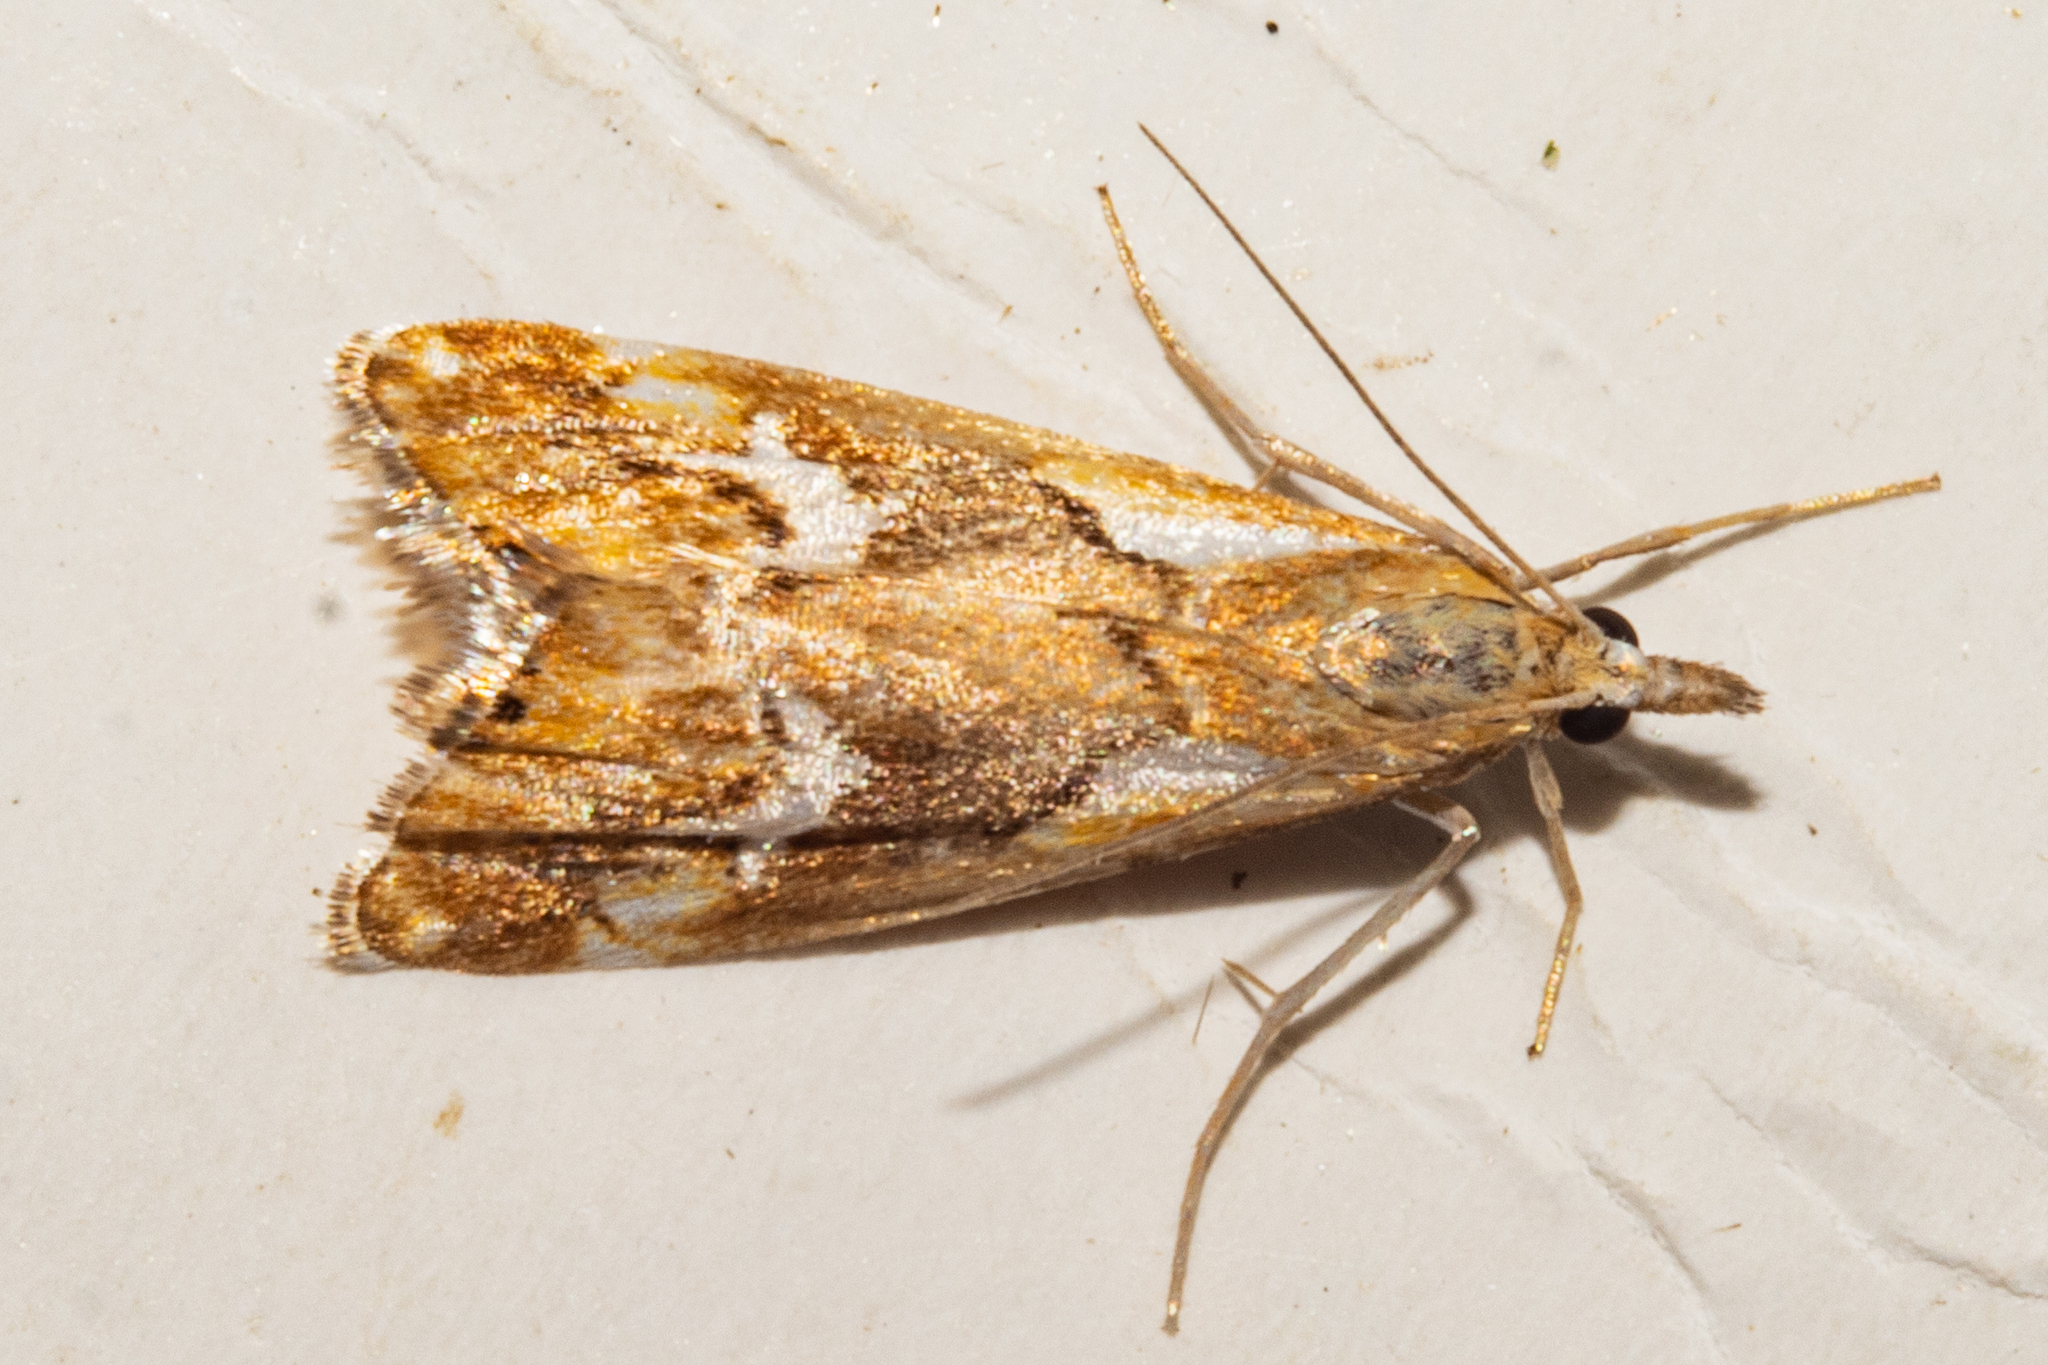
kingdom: Animalia
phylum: Arthropoda
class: Insecta
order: Lepidoptera
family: Crambidae
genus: Glaucocharis
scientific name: Glaucocharis interruptus
